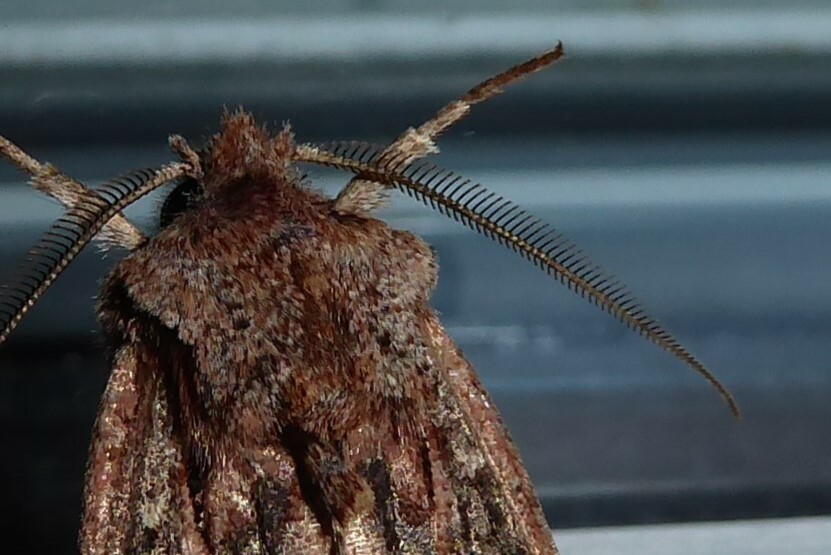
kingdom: Animalia
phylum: Arthropoda
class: Insecta
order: Lepidoptera
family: Noctuidae
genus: Ichneutica
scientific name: Ichneutica
